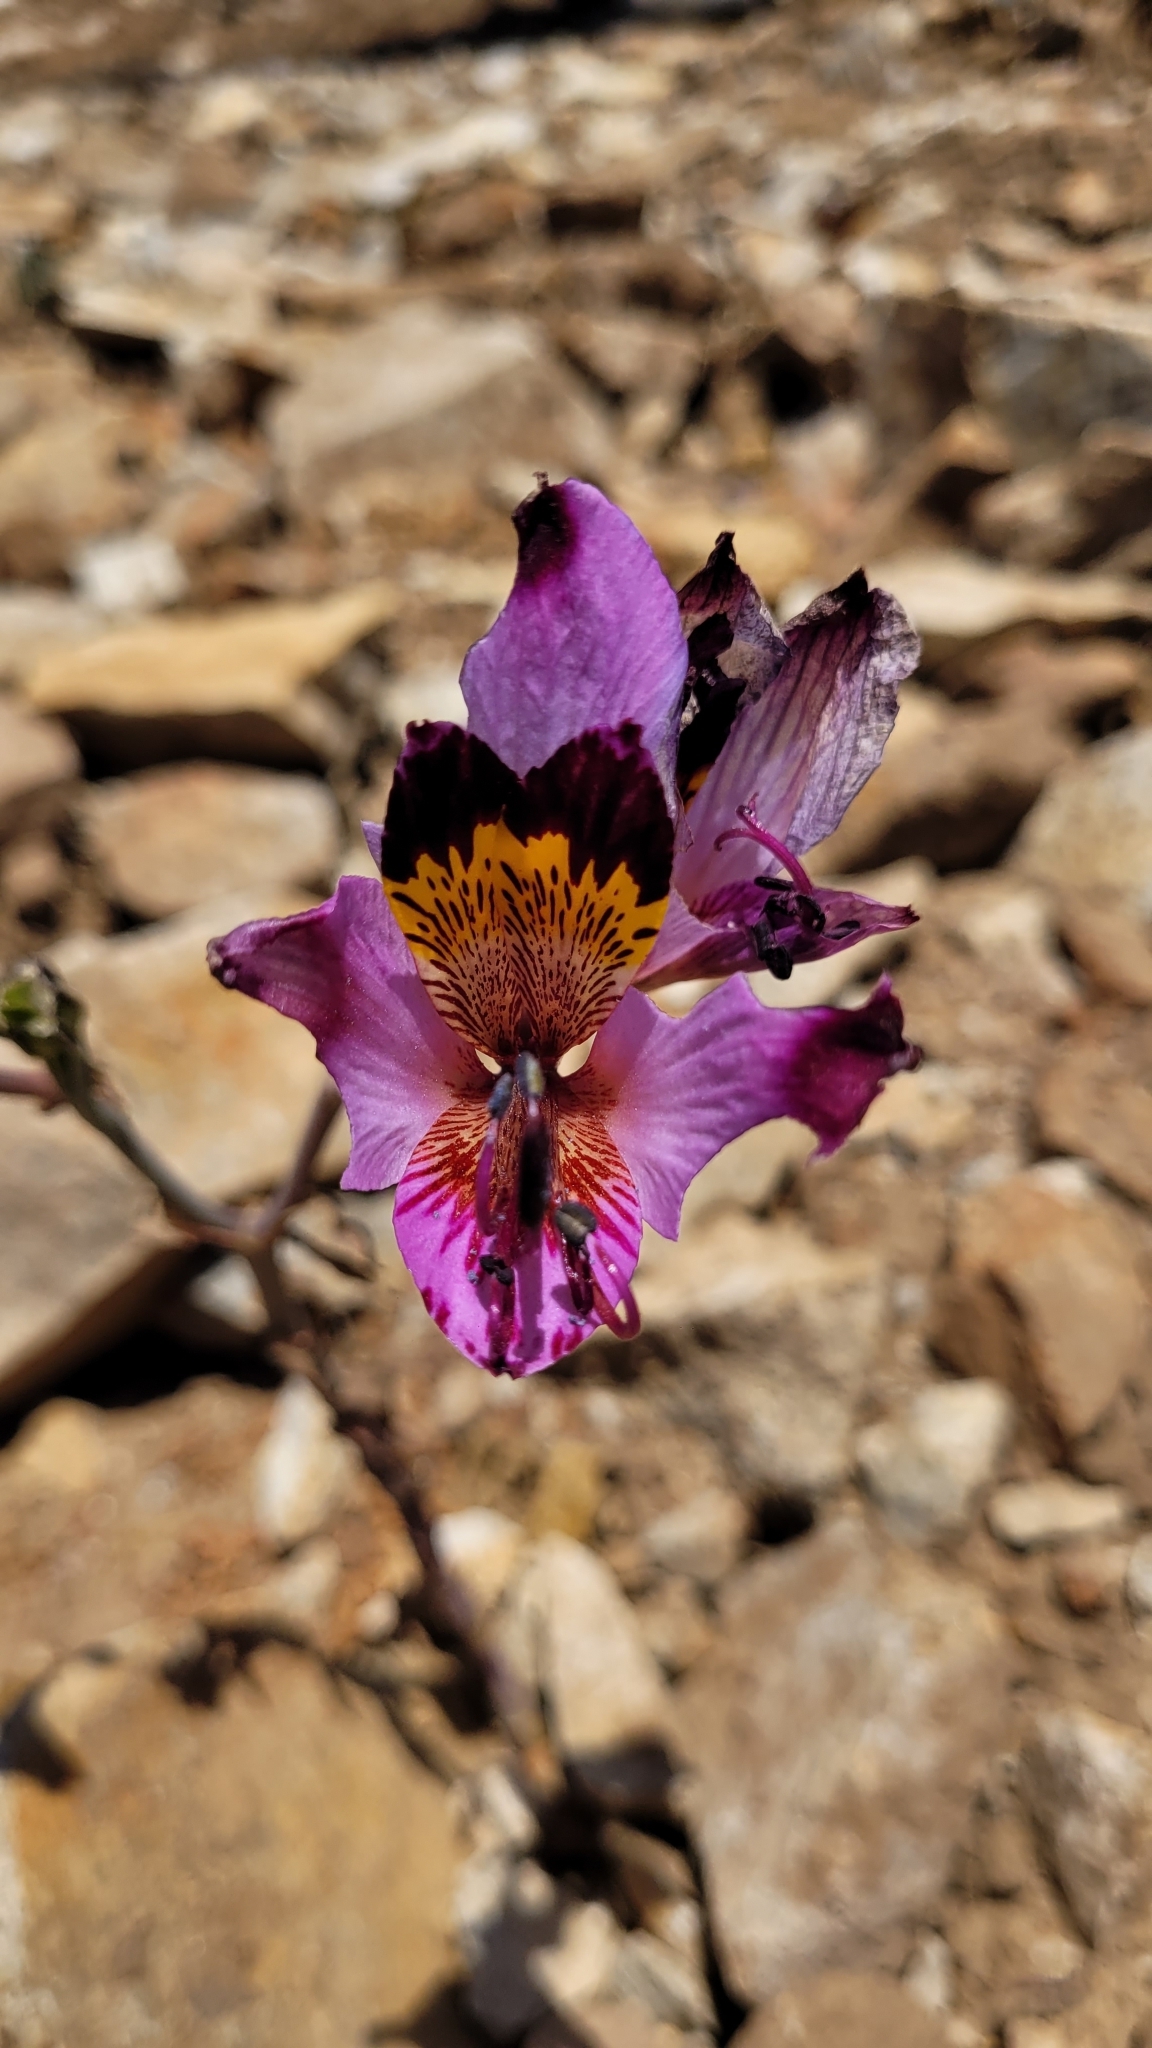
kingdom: Plantae
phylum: Tracheophyta
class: Liliopsida
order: Liliales
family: Alstroemeriaceae
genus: Alstroemeria
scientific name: Alstroemeria magnifica
